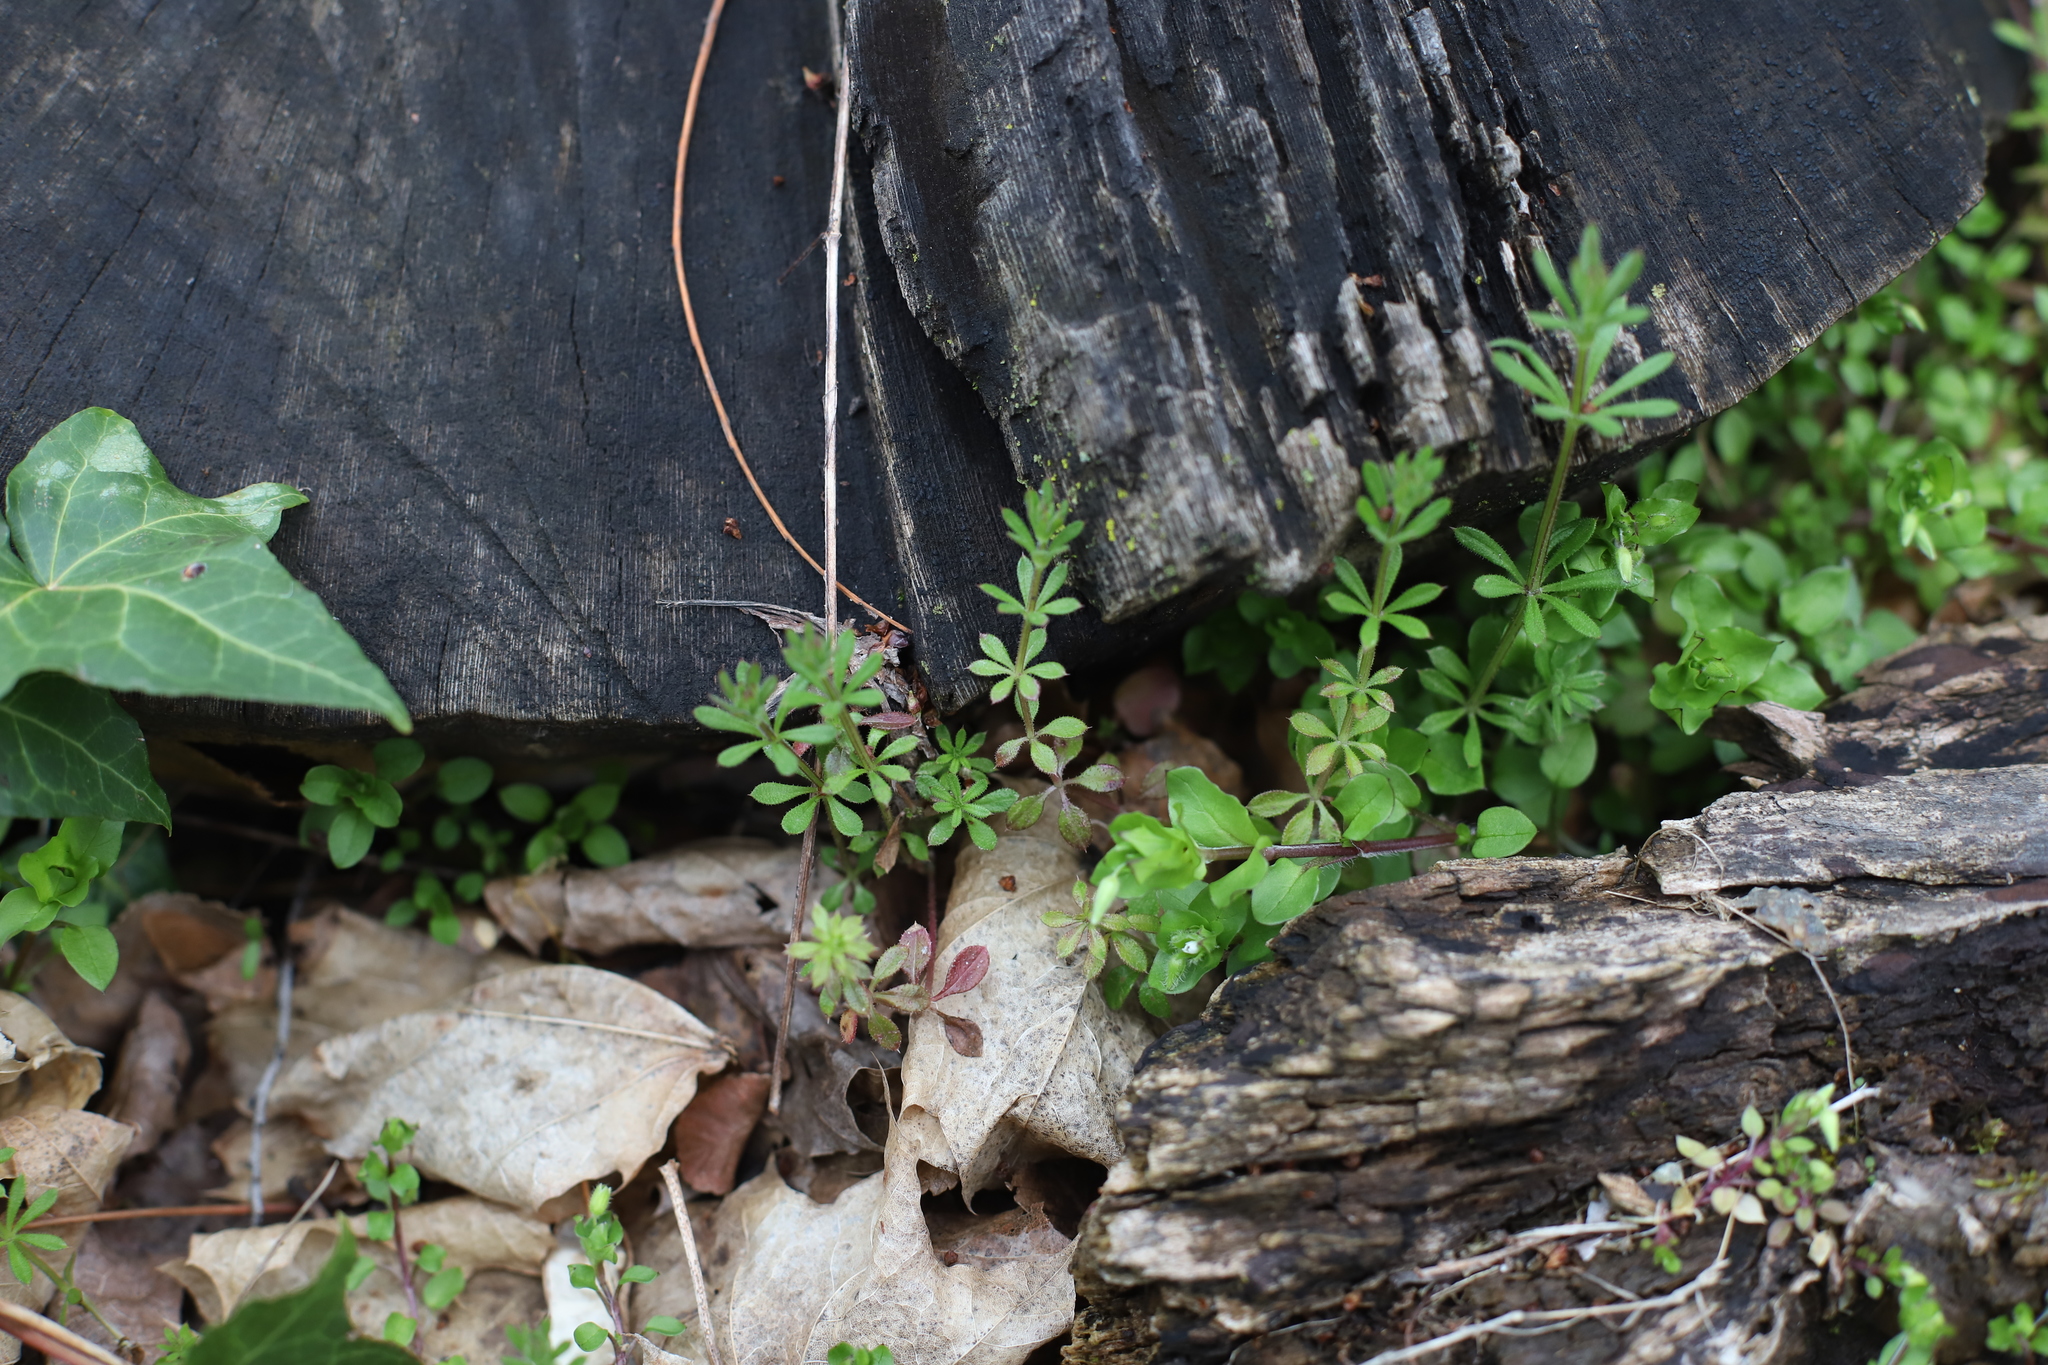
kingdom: Plantae
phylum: Tracheophyta
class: Magnoliopsida
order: Gentianales
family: Rubiaceae
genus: Galium
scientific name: Galium aparine
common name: Cleavers
